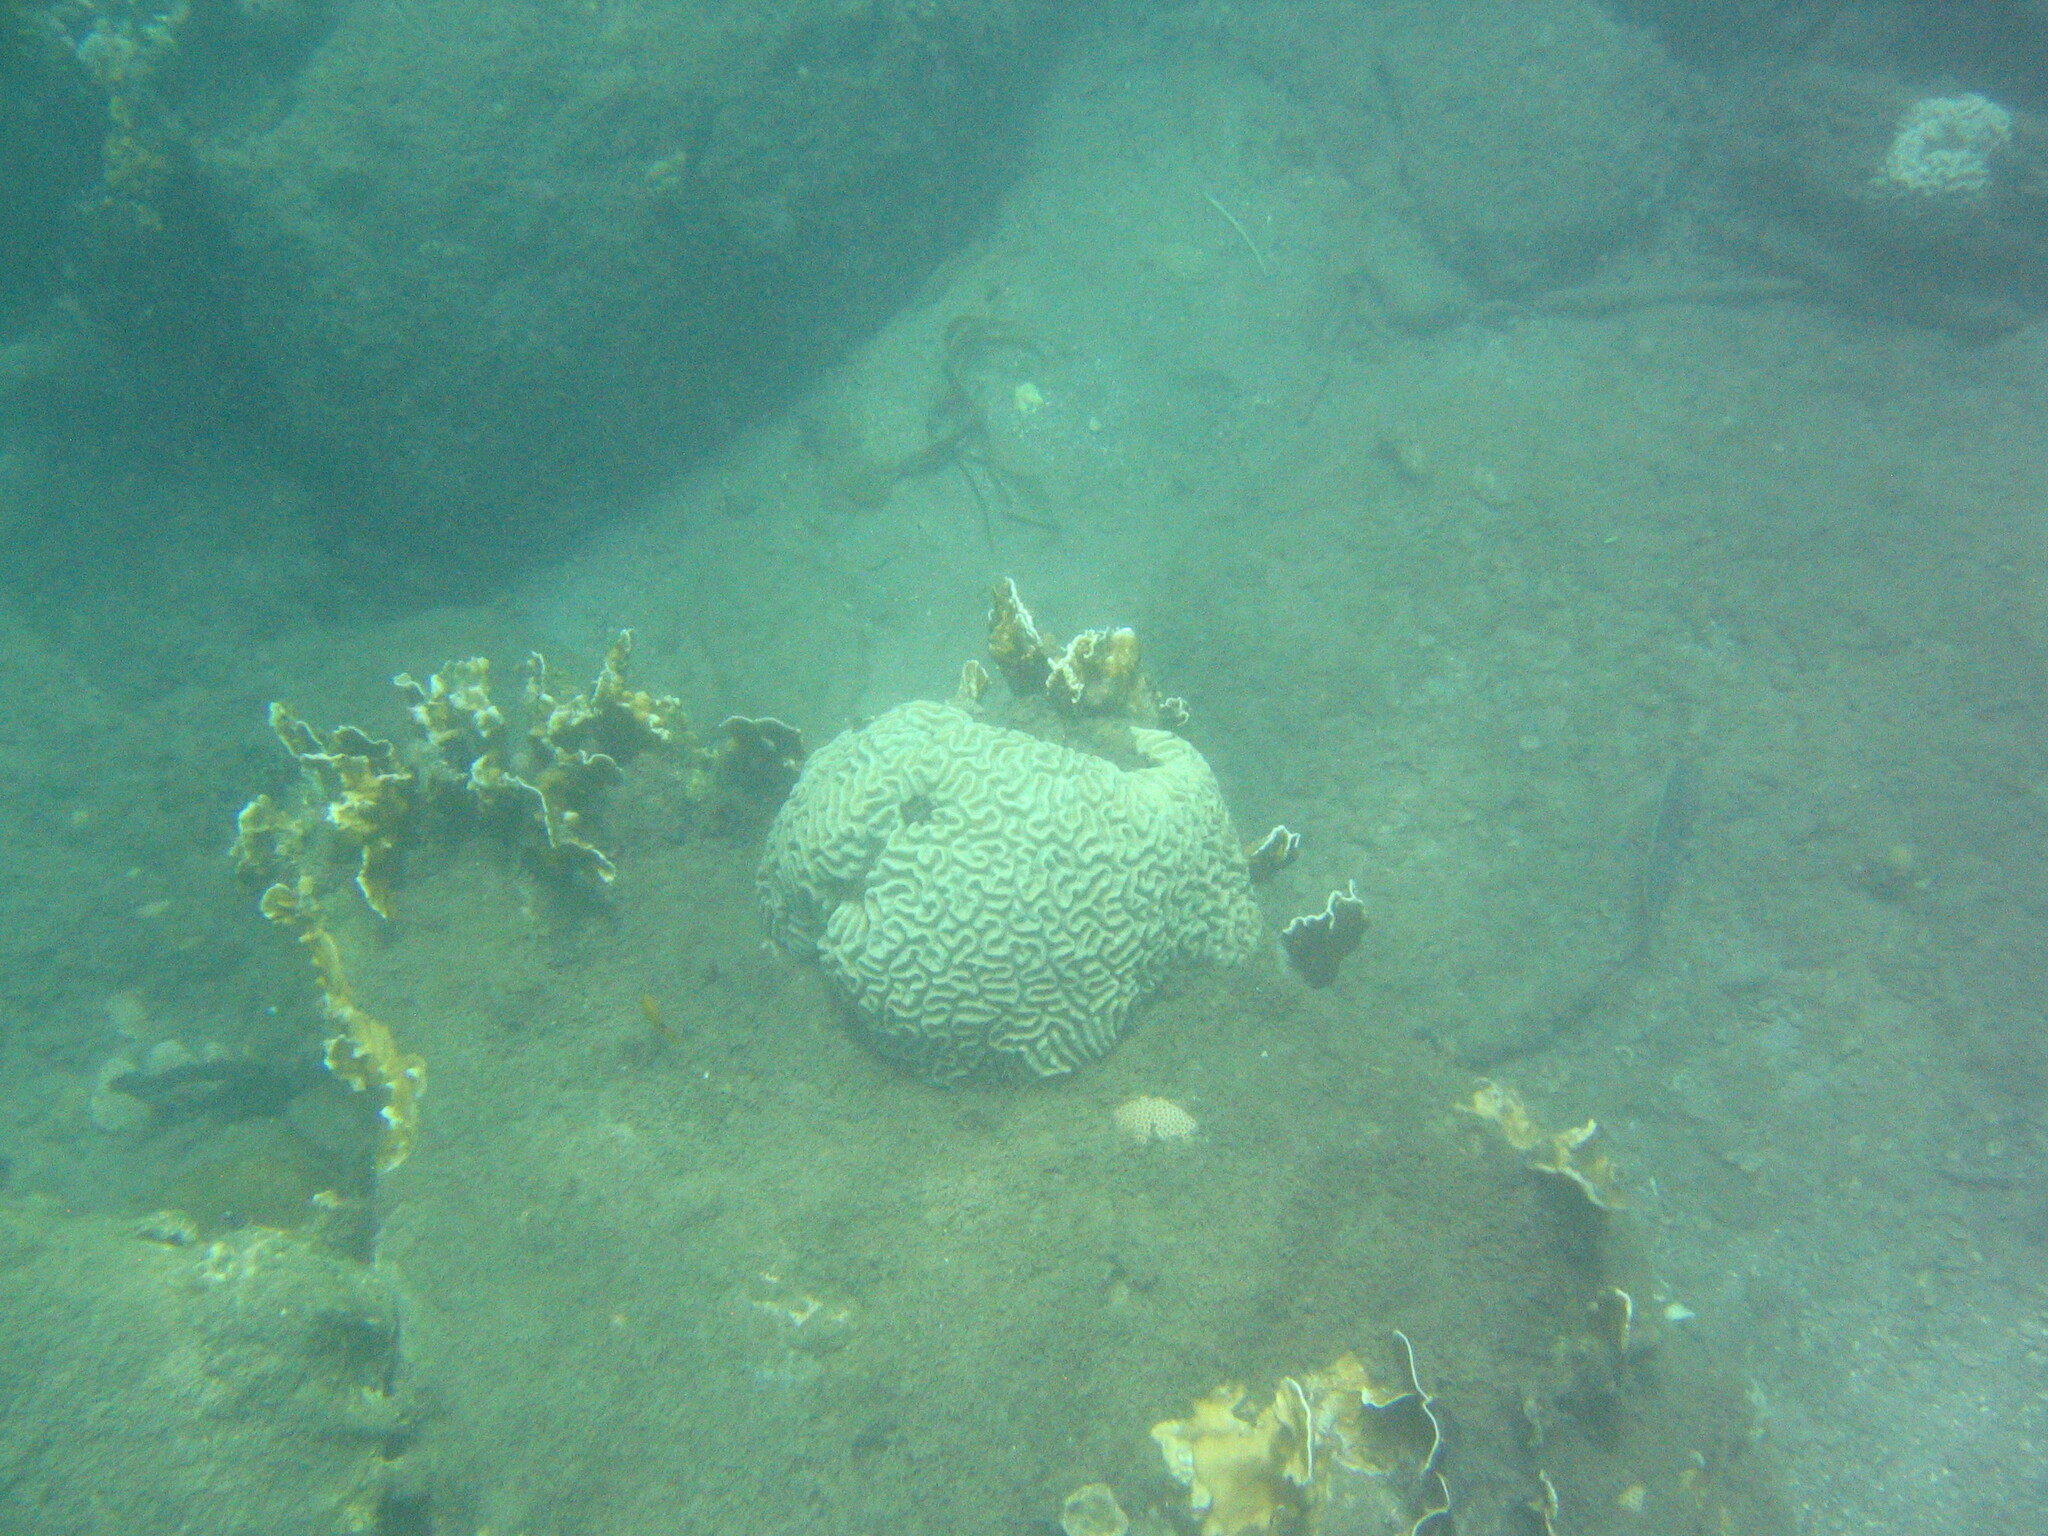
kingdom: Animalia
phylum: Cnidaria
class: Hydrozoa
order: Anthoathecata
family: Milleporidae
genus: Millepora
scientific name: Millepora complanata
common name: Bladed fire coral
